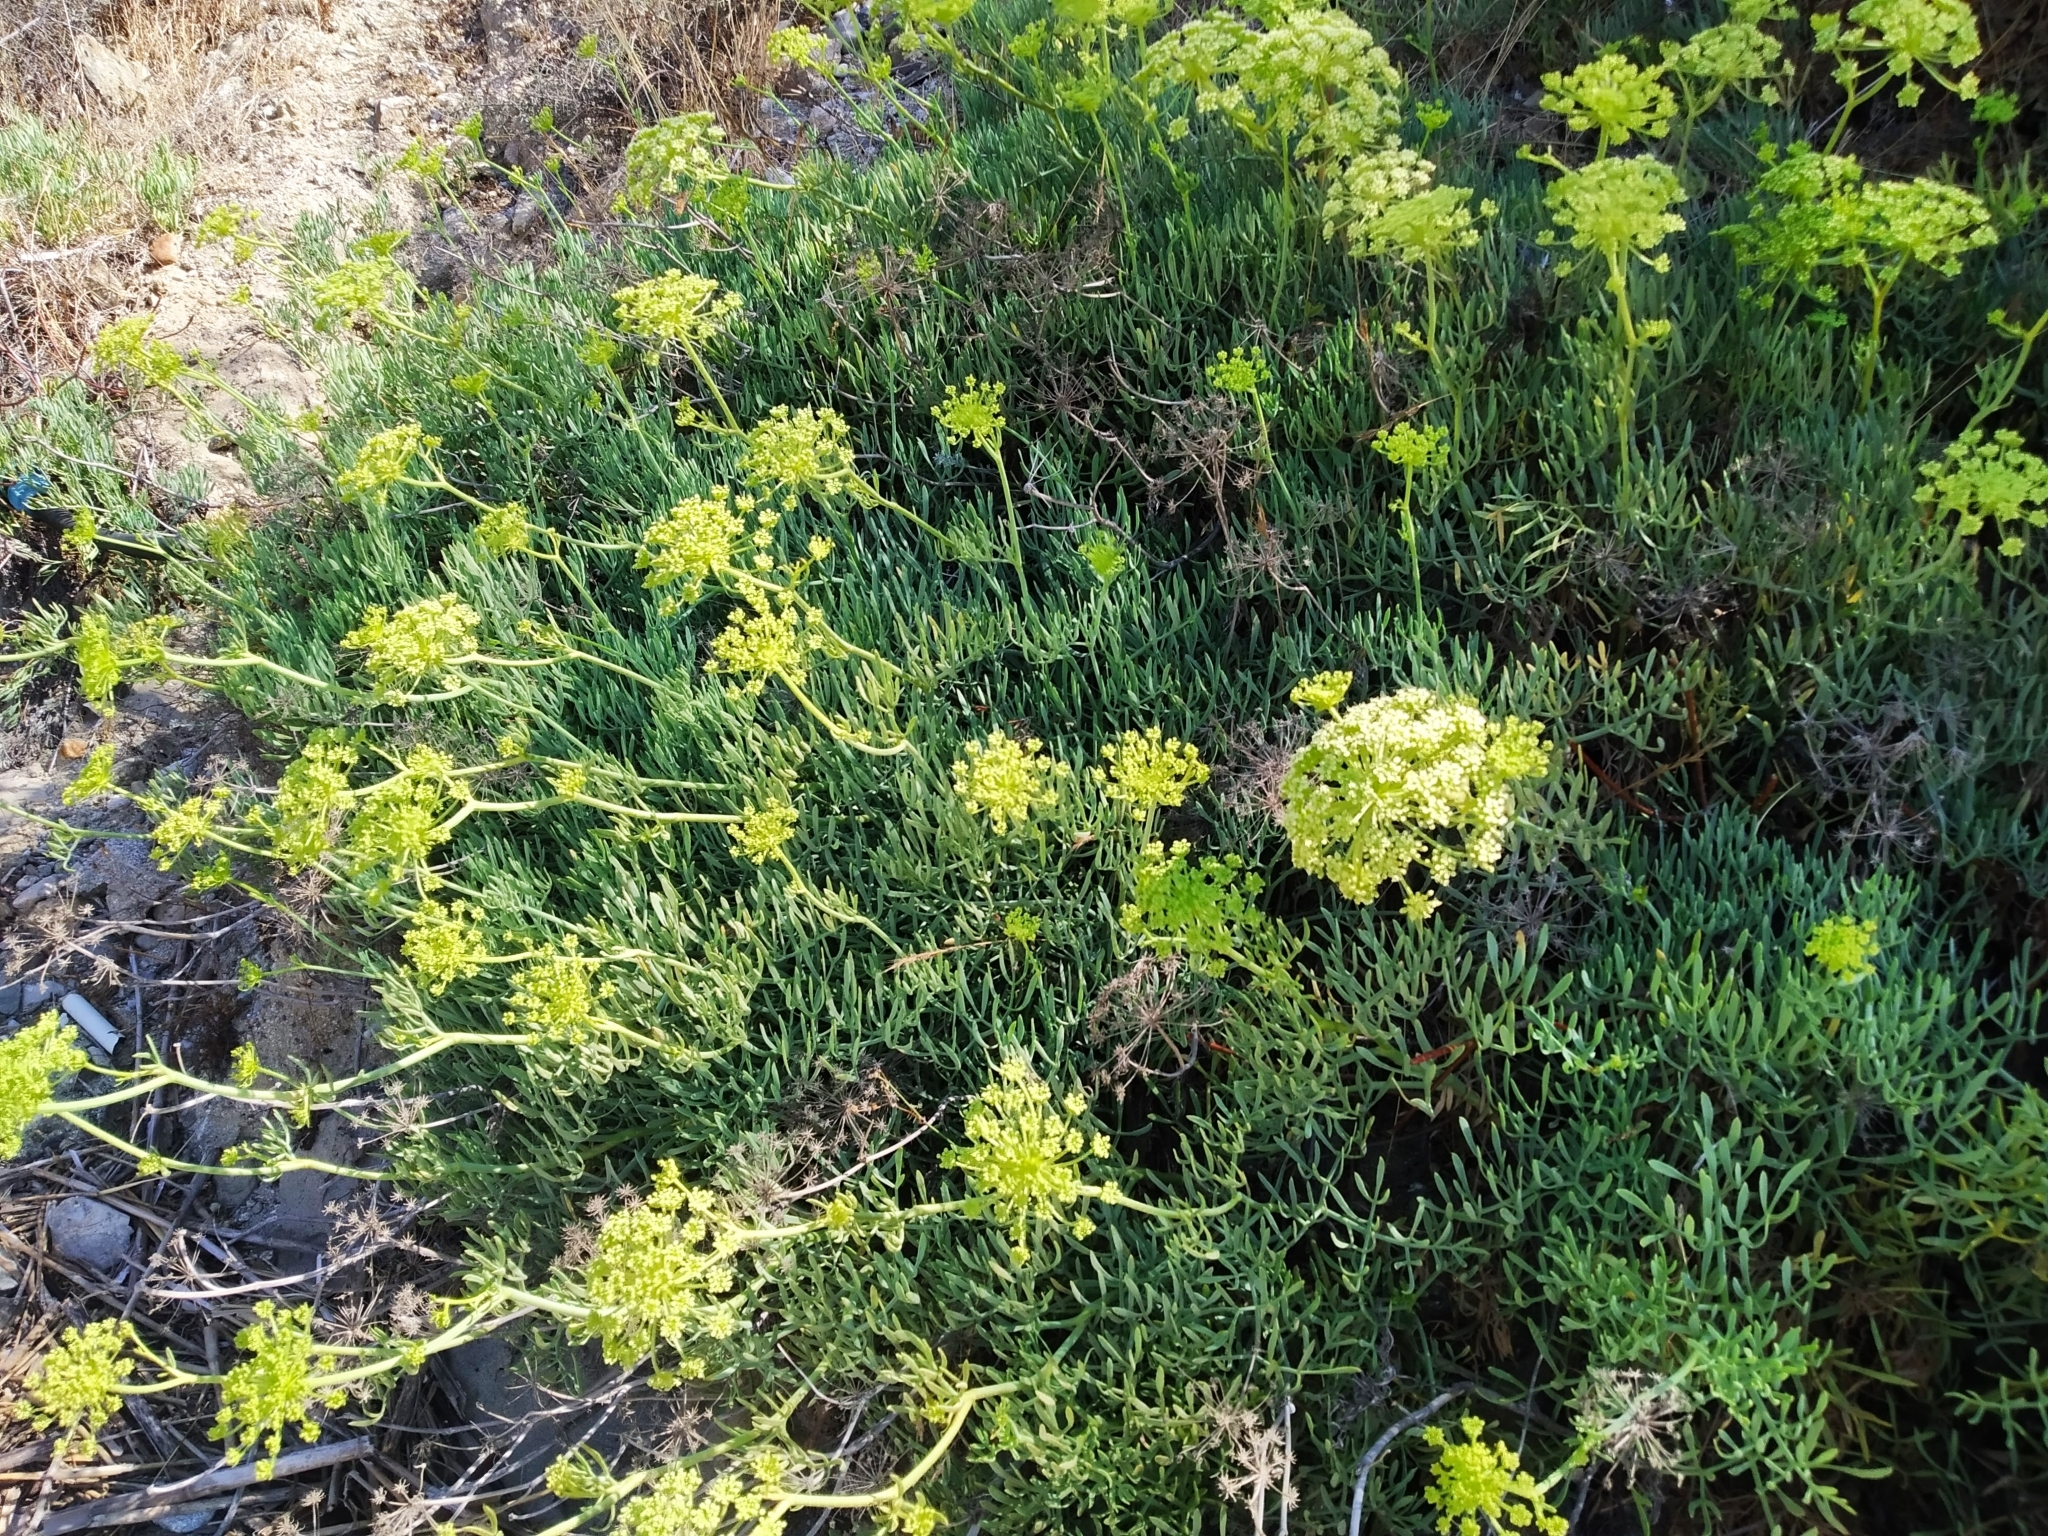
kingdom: Plantae
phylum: Tracheophyta
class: Magnoliopsida
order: Apiales
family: Apiaceae
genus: Crithmum
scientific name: Crithmum maritimum
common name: Rock samphire
